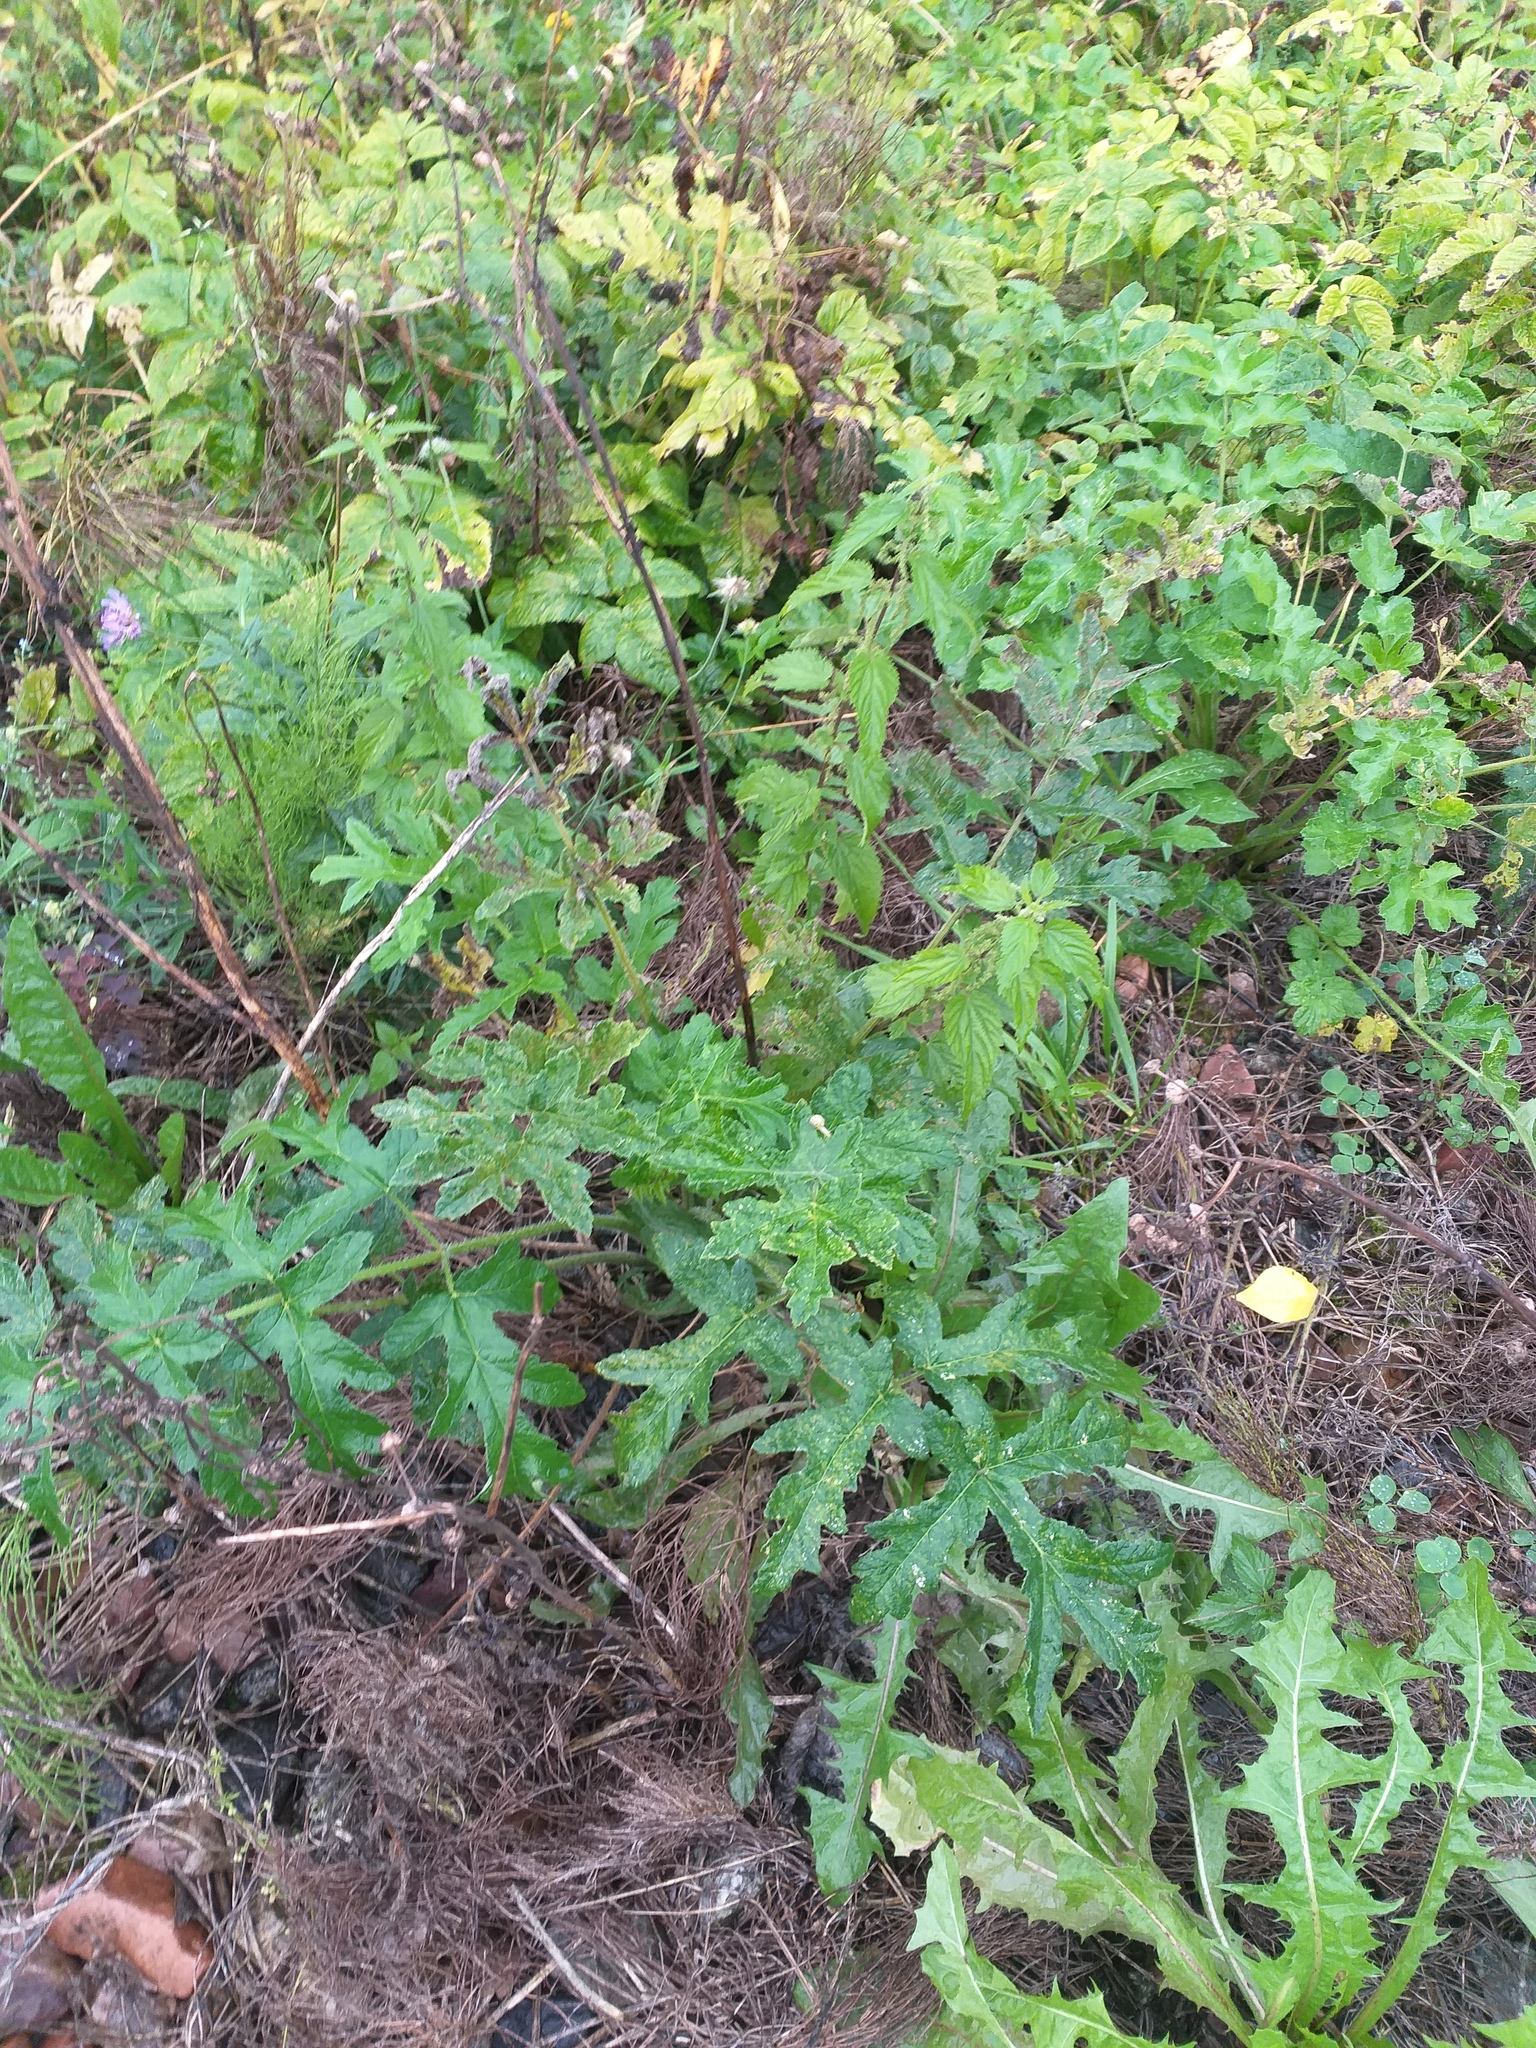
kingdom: Plantae
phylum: Tracheophyta
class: Magnoliopsida
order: Apiales
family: Apiaceae
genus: Heracleum
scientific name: Heracleum sphondylium
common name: Hogweed
